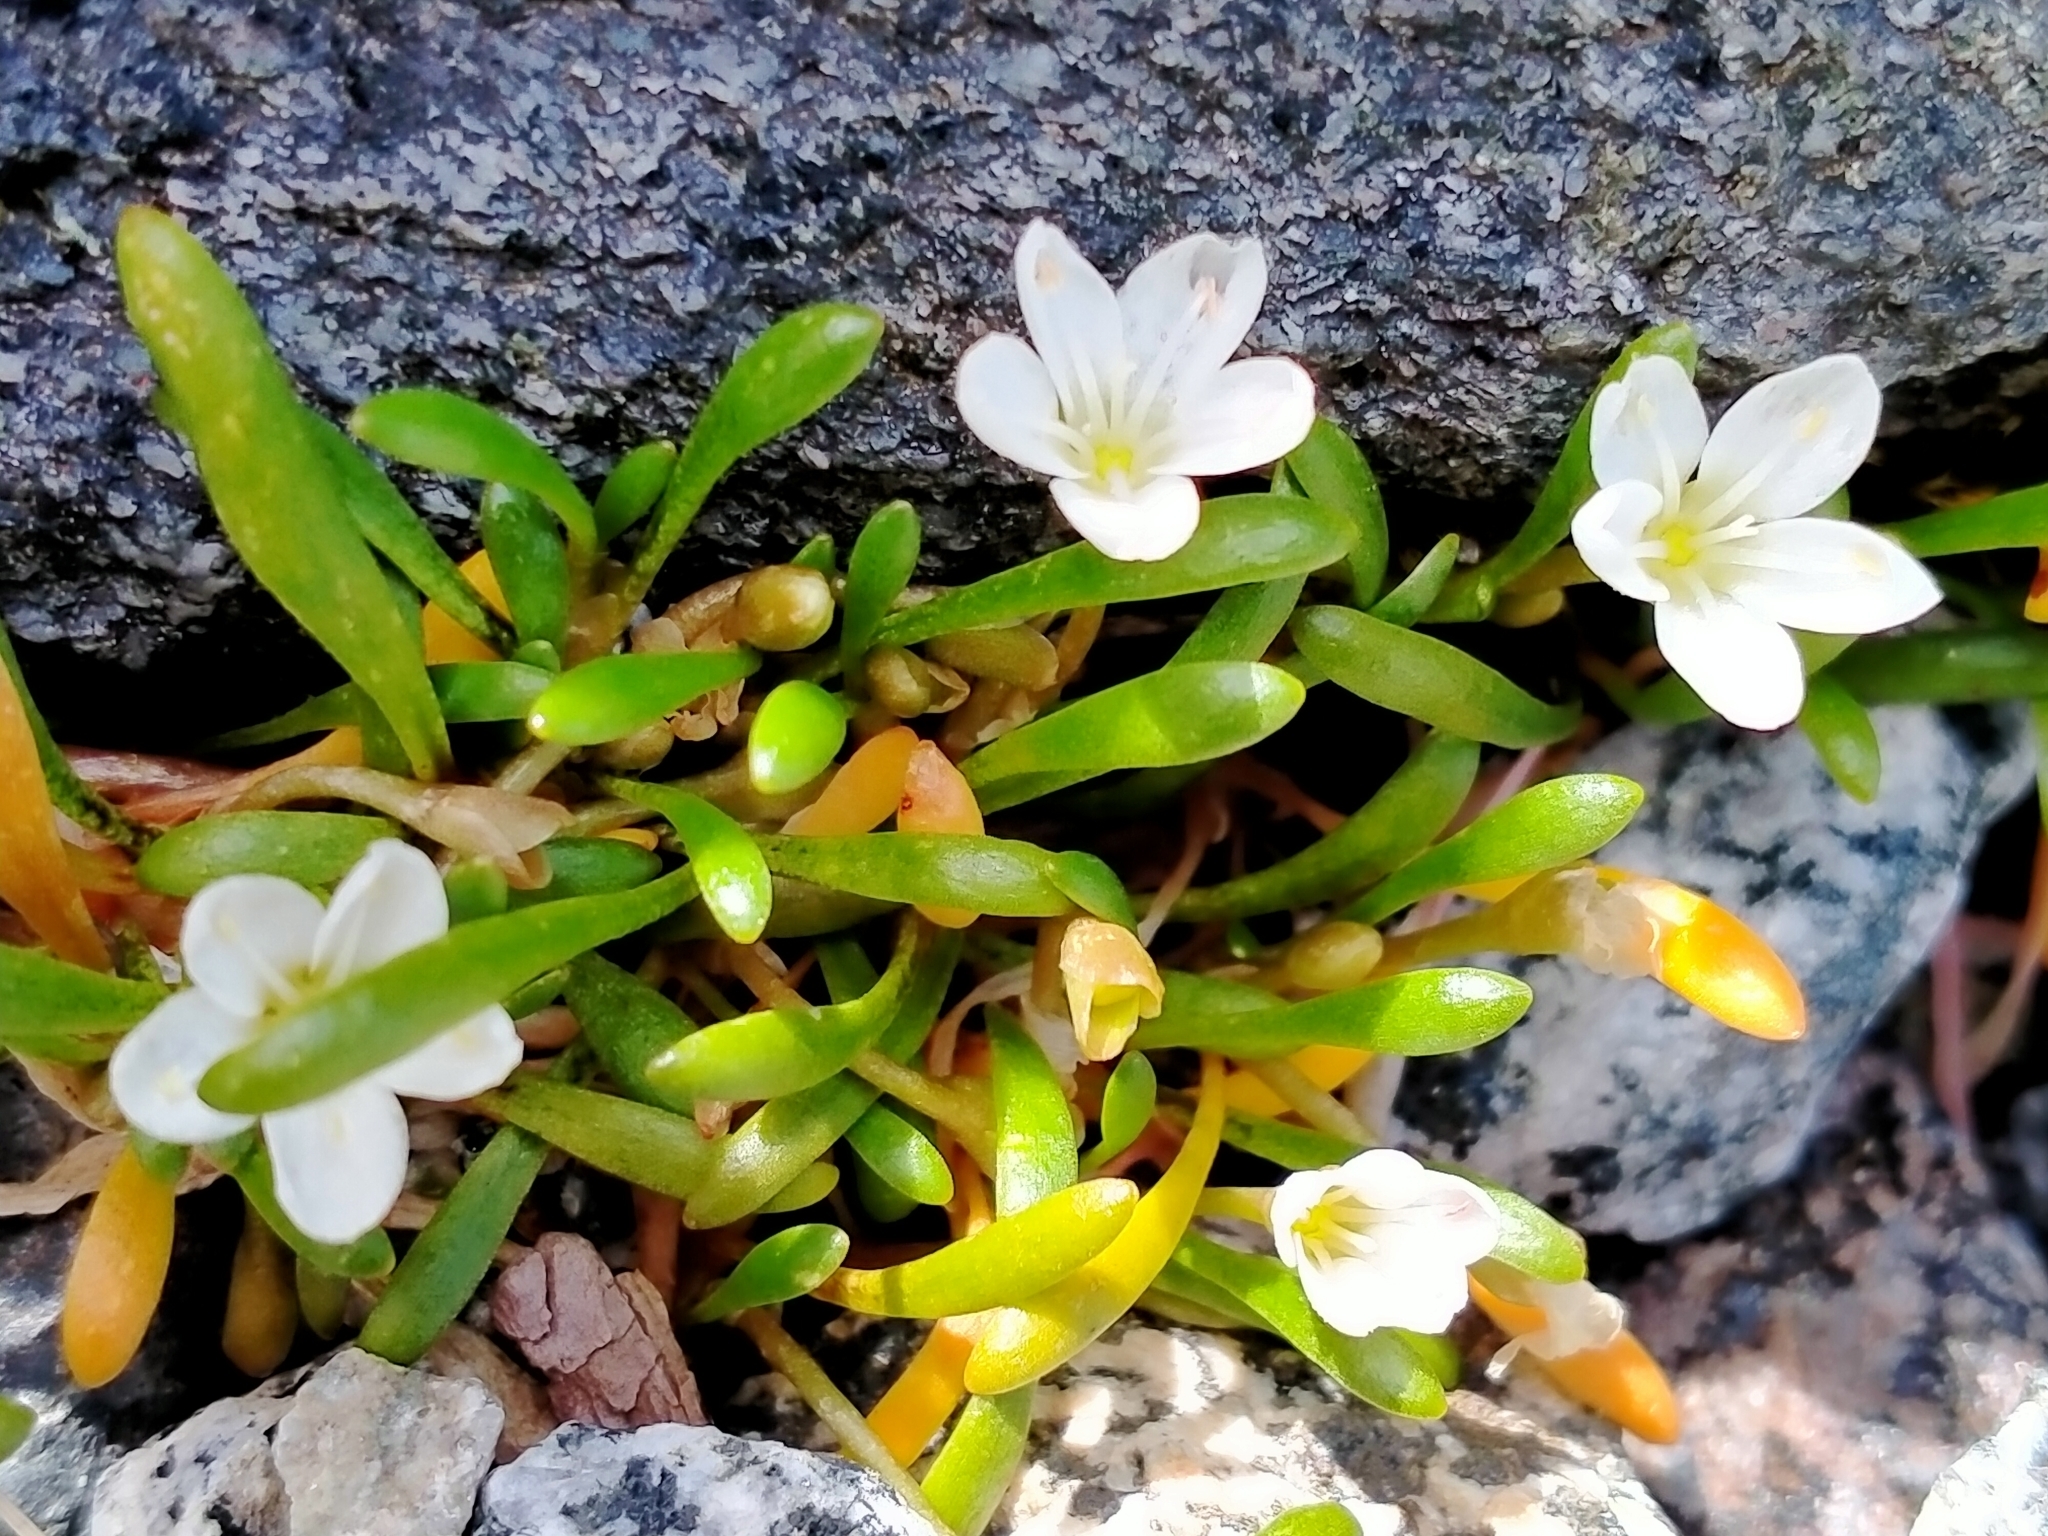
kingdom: Plantae
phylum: Tracheophyta
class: Magnoliopsida
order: Caryophyllales
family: Montiaceae
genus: Montia
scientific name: Montia sessiliflora
